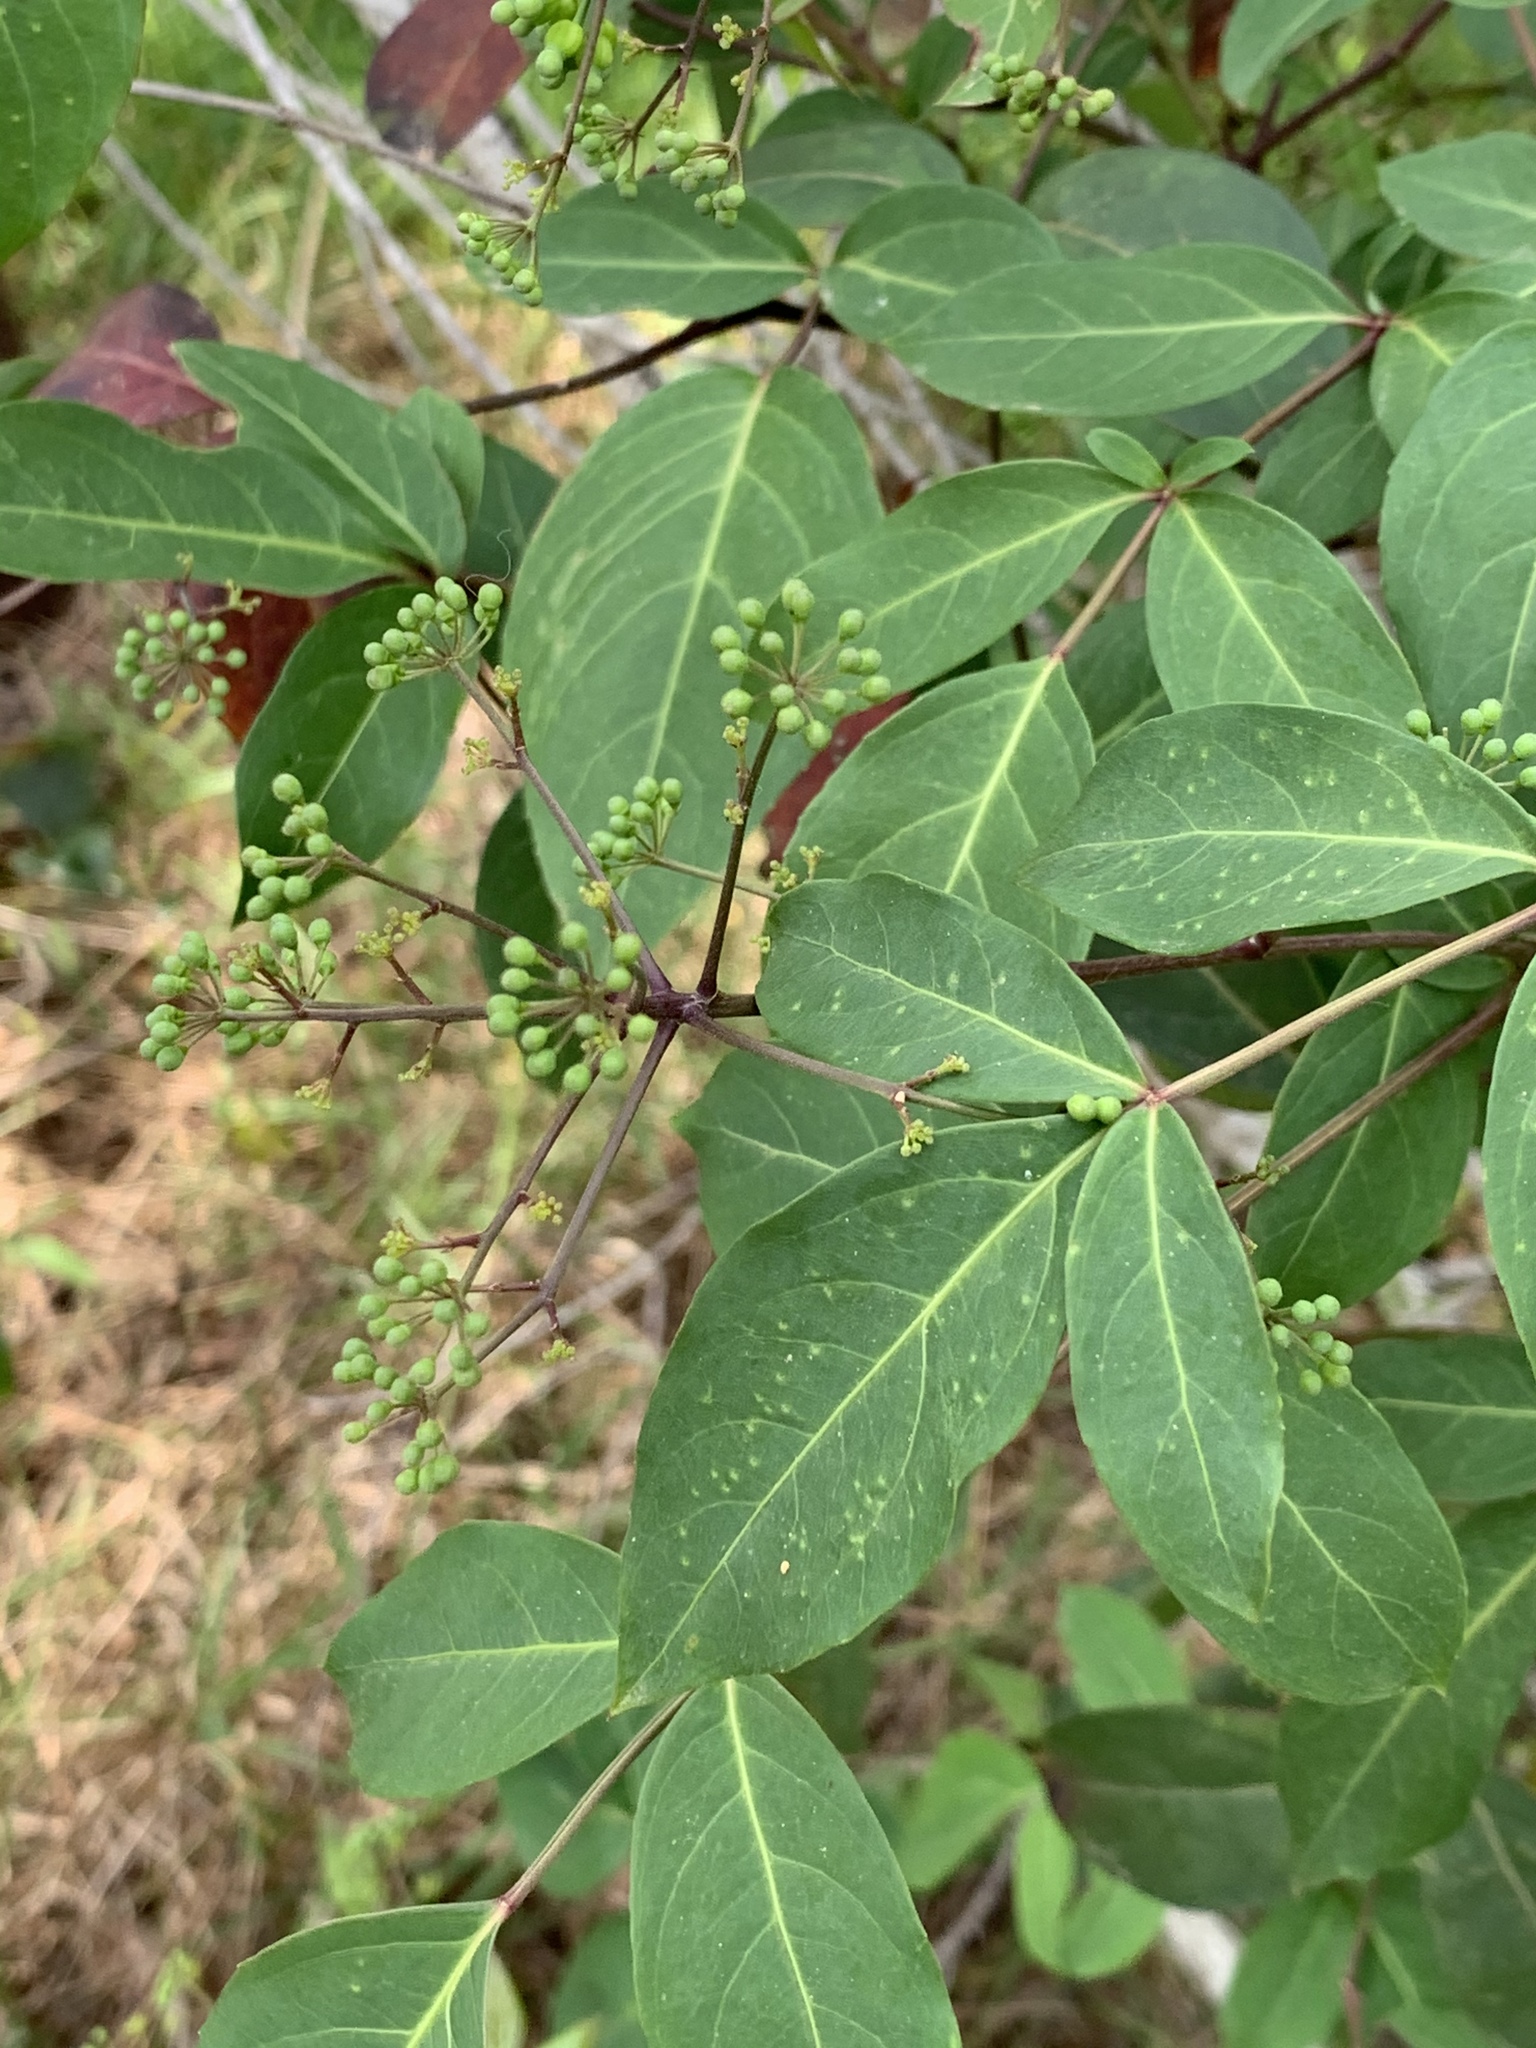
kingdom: Plantae
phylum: Tracheophyta
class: Magnoliopsida
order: Apiales
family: Araliaceae
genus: Polyscias
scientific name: Polyscias sambucifolia
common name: Elderberry-ash
